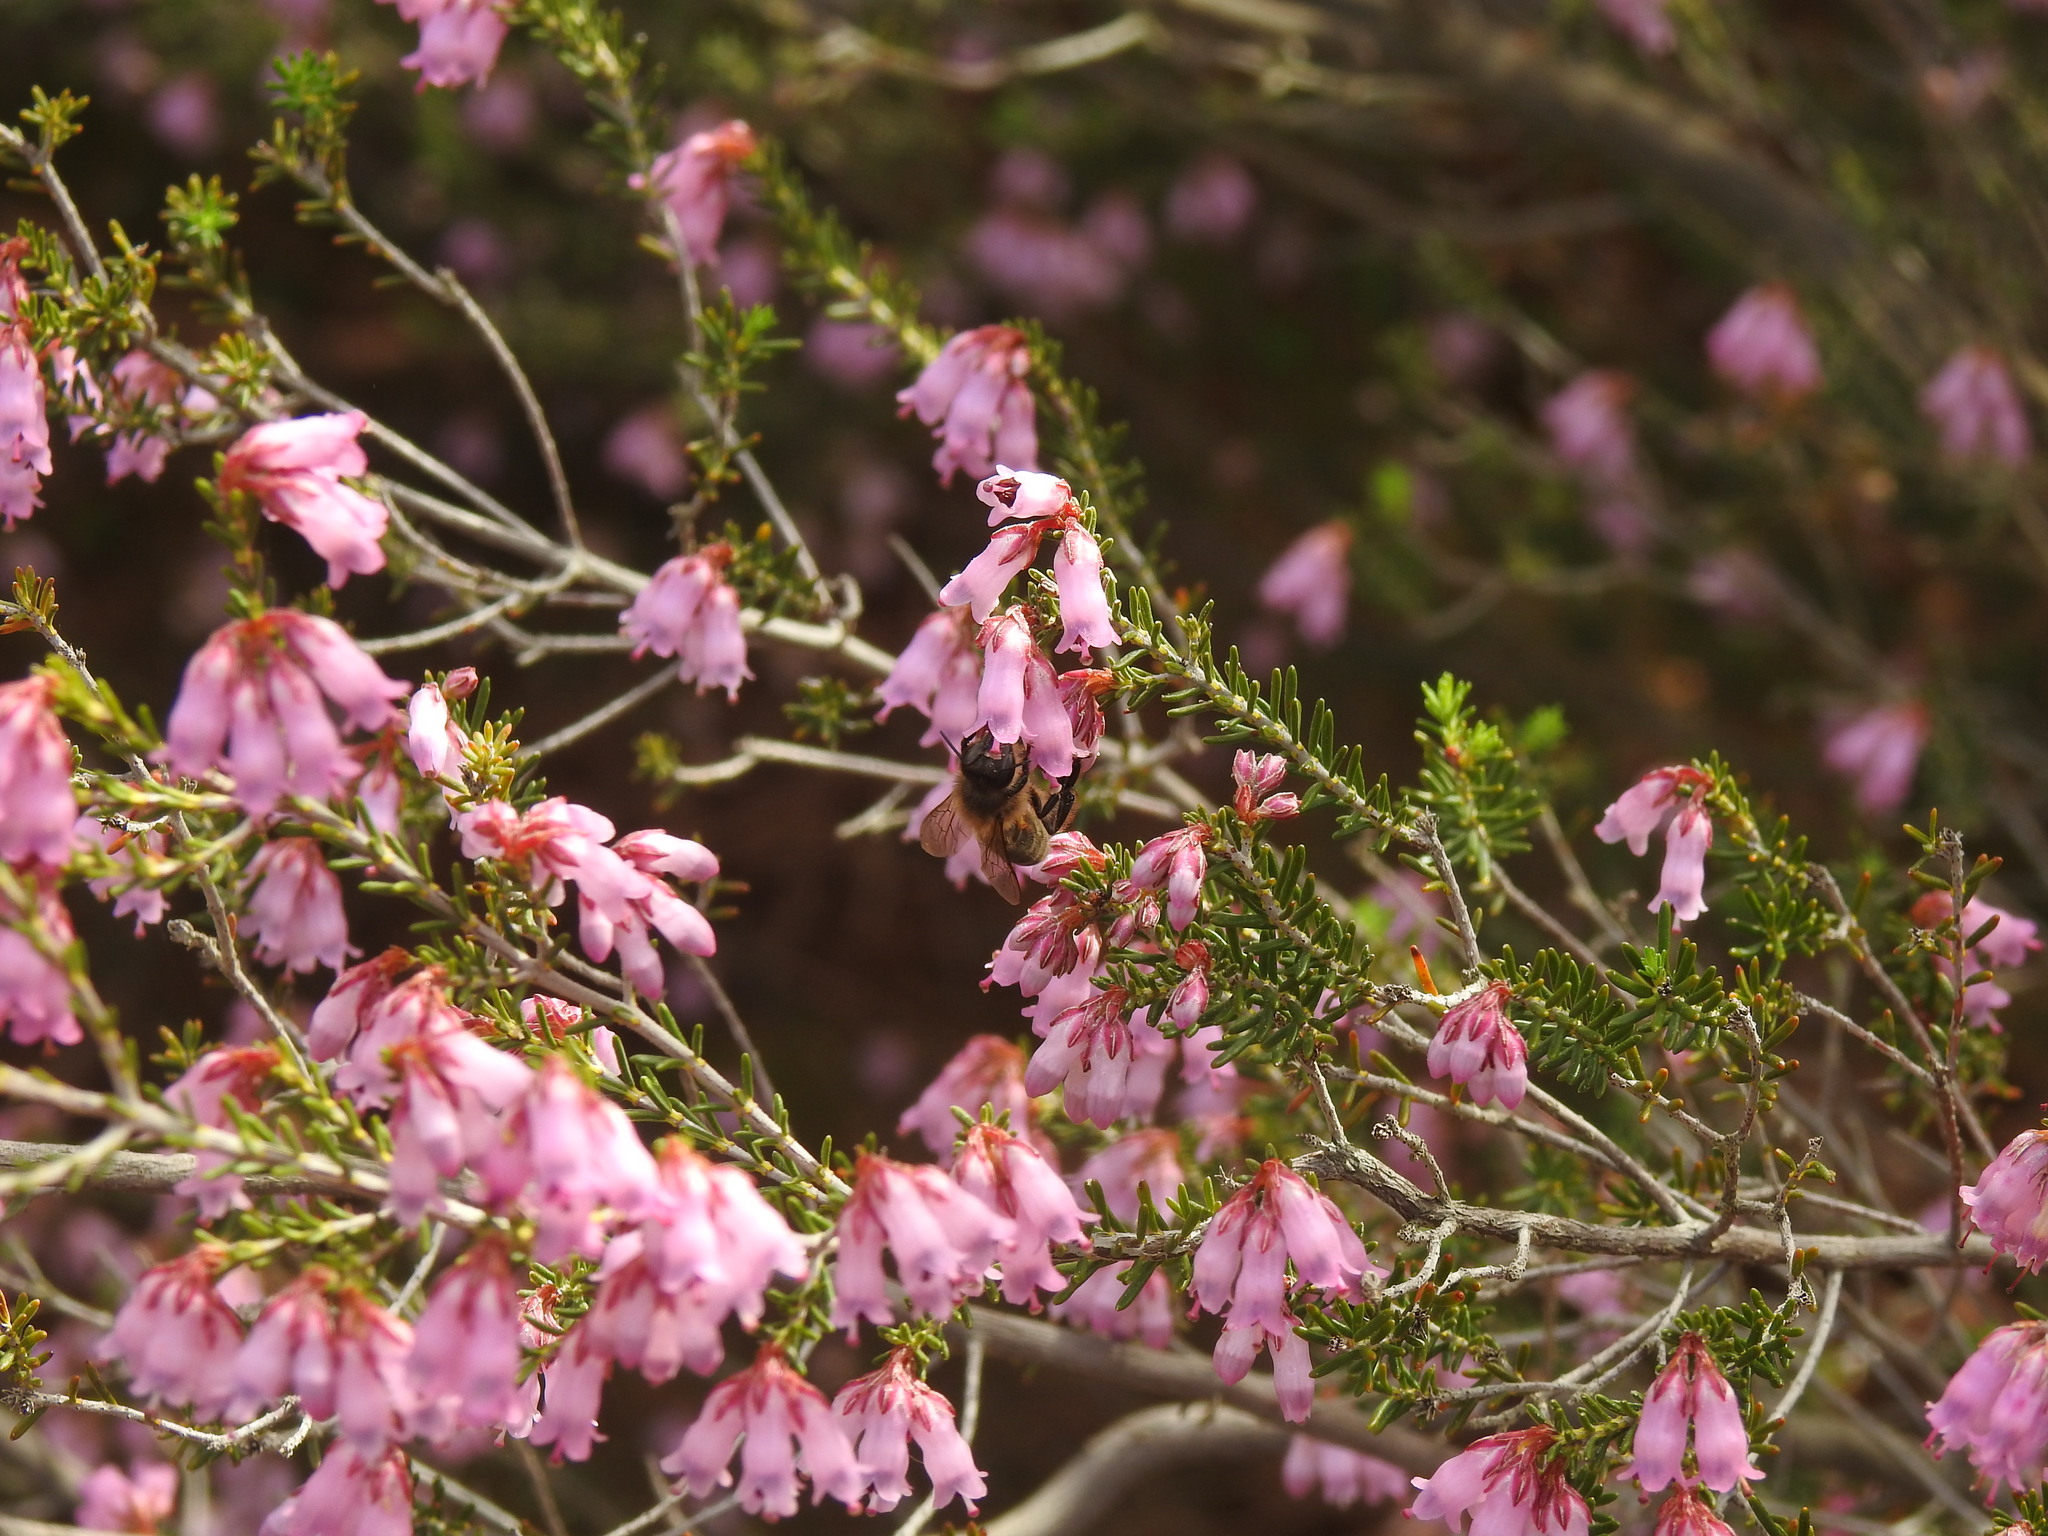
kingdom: Animalia
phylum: Arthropoda
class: Insecta
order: Hymenoptera
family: Apidae
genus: Apis
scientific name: Apis mellifera
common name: Honey bee
